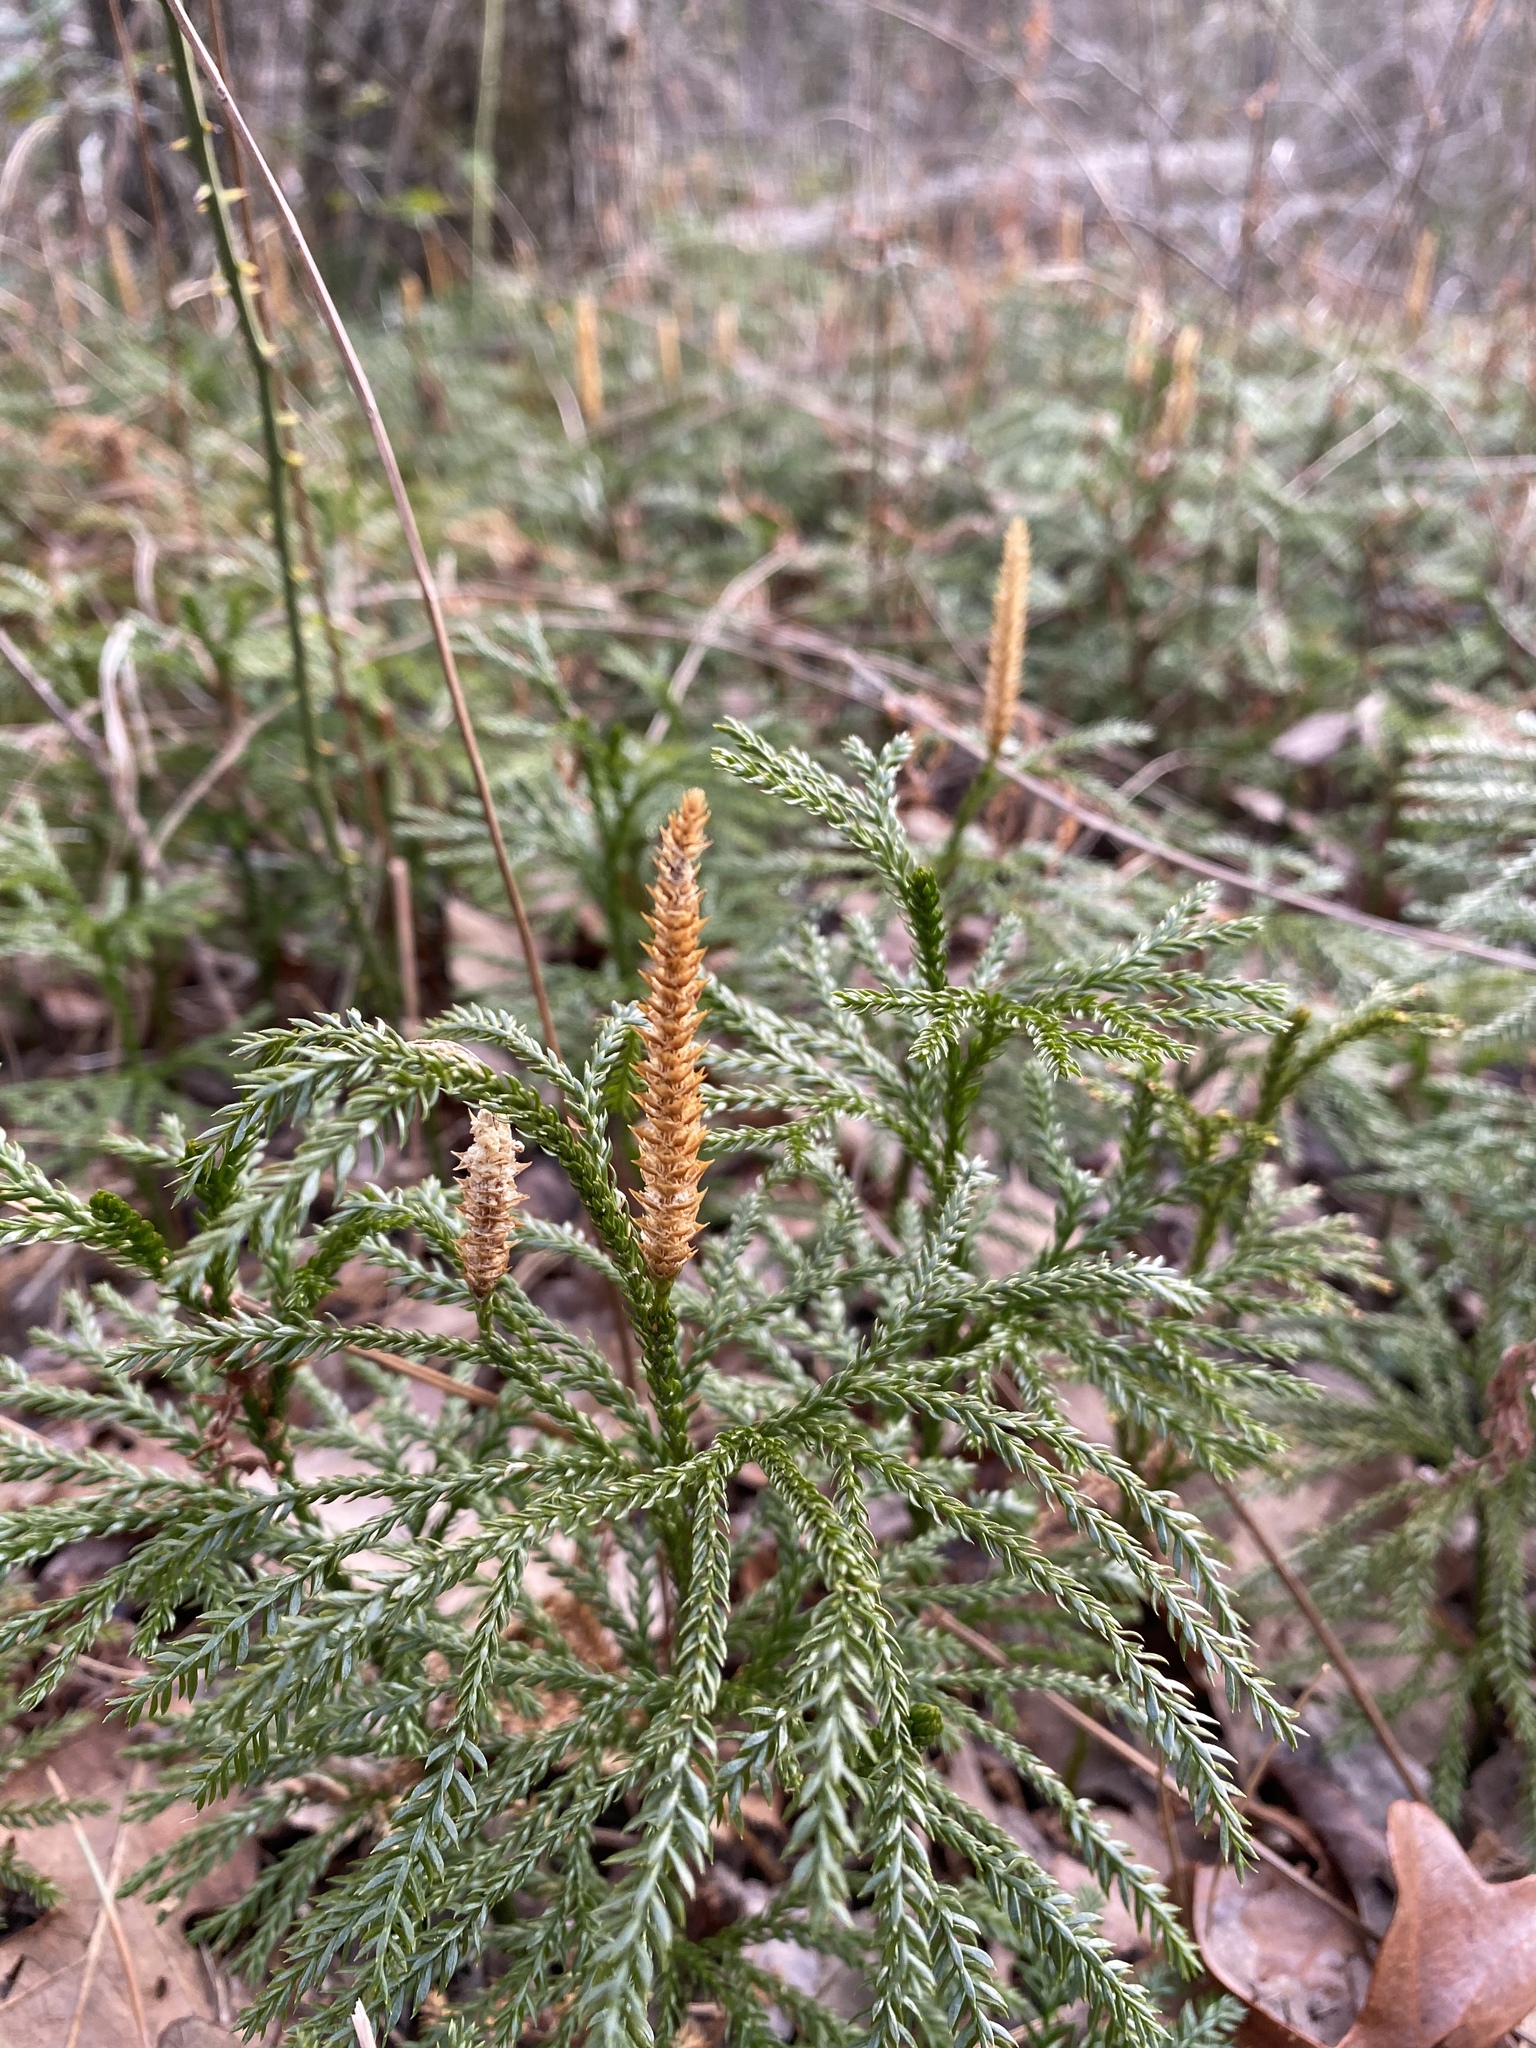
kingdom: Plantae
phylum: Tracheophyta
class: Lycopodiopsida
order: Lycopodiales
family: Lycopodiaceae
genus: Dendrolycopodium
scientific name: Dendrolycopodium obscurum
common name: Common ground-pine
